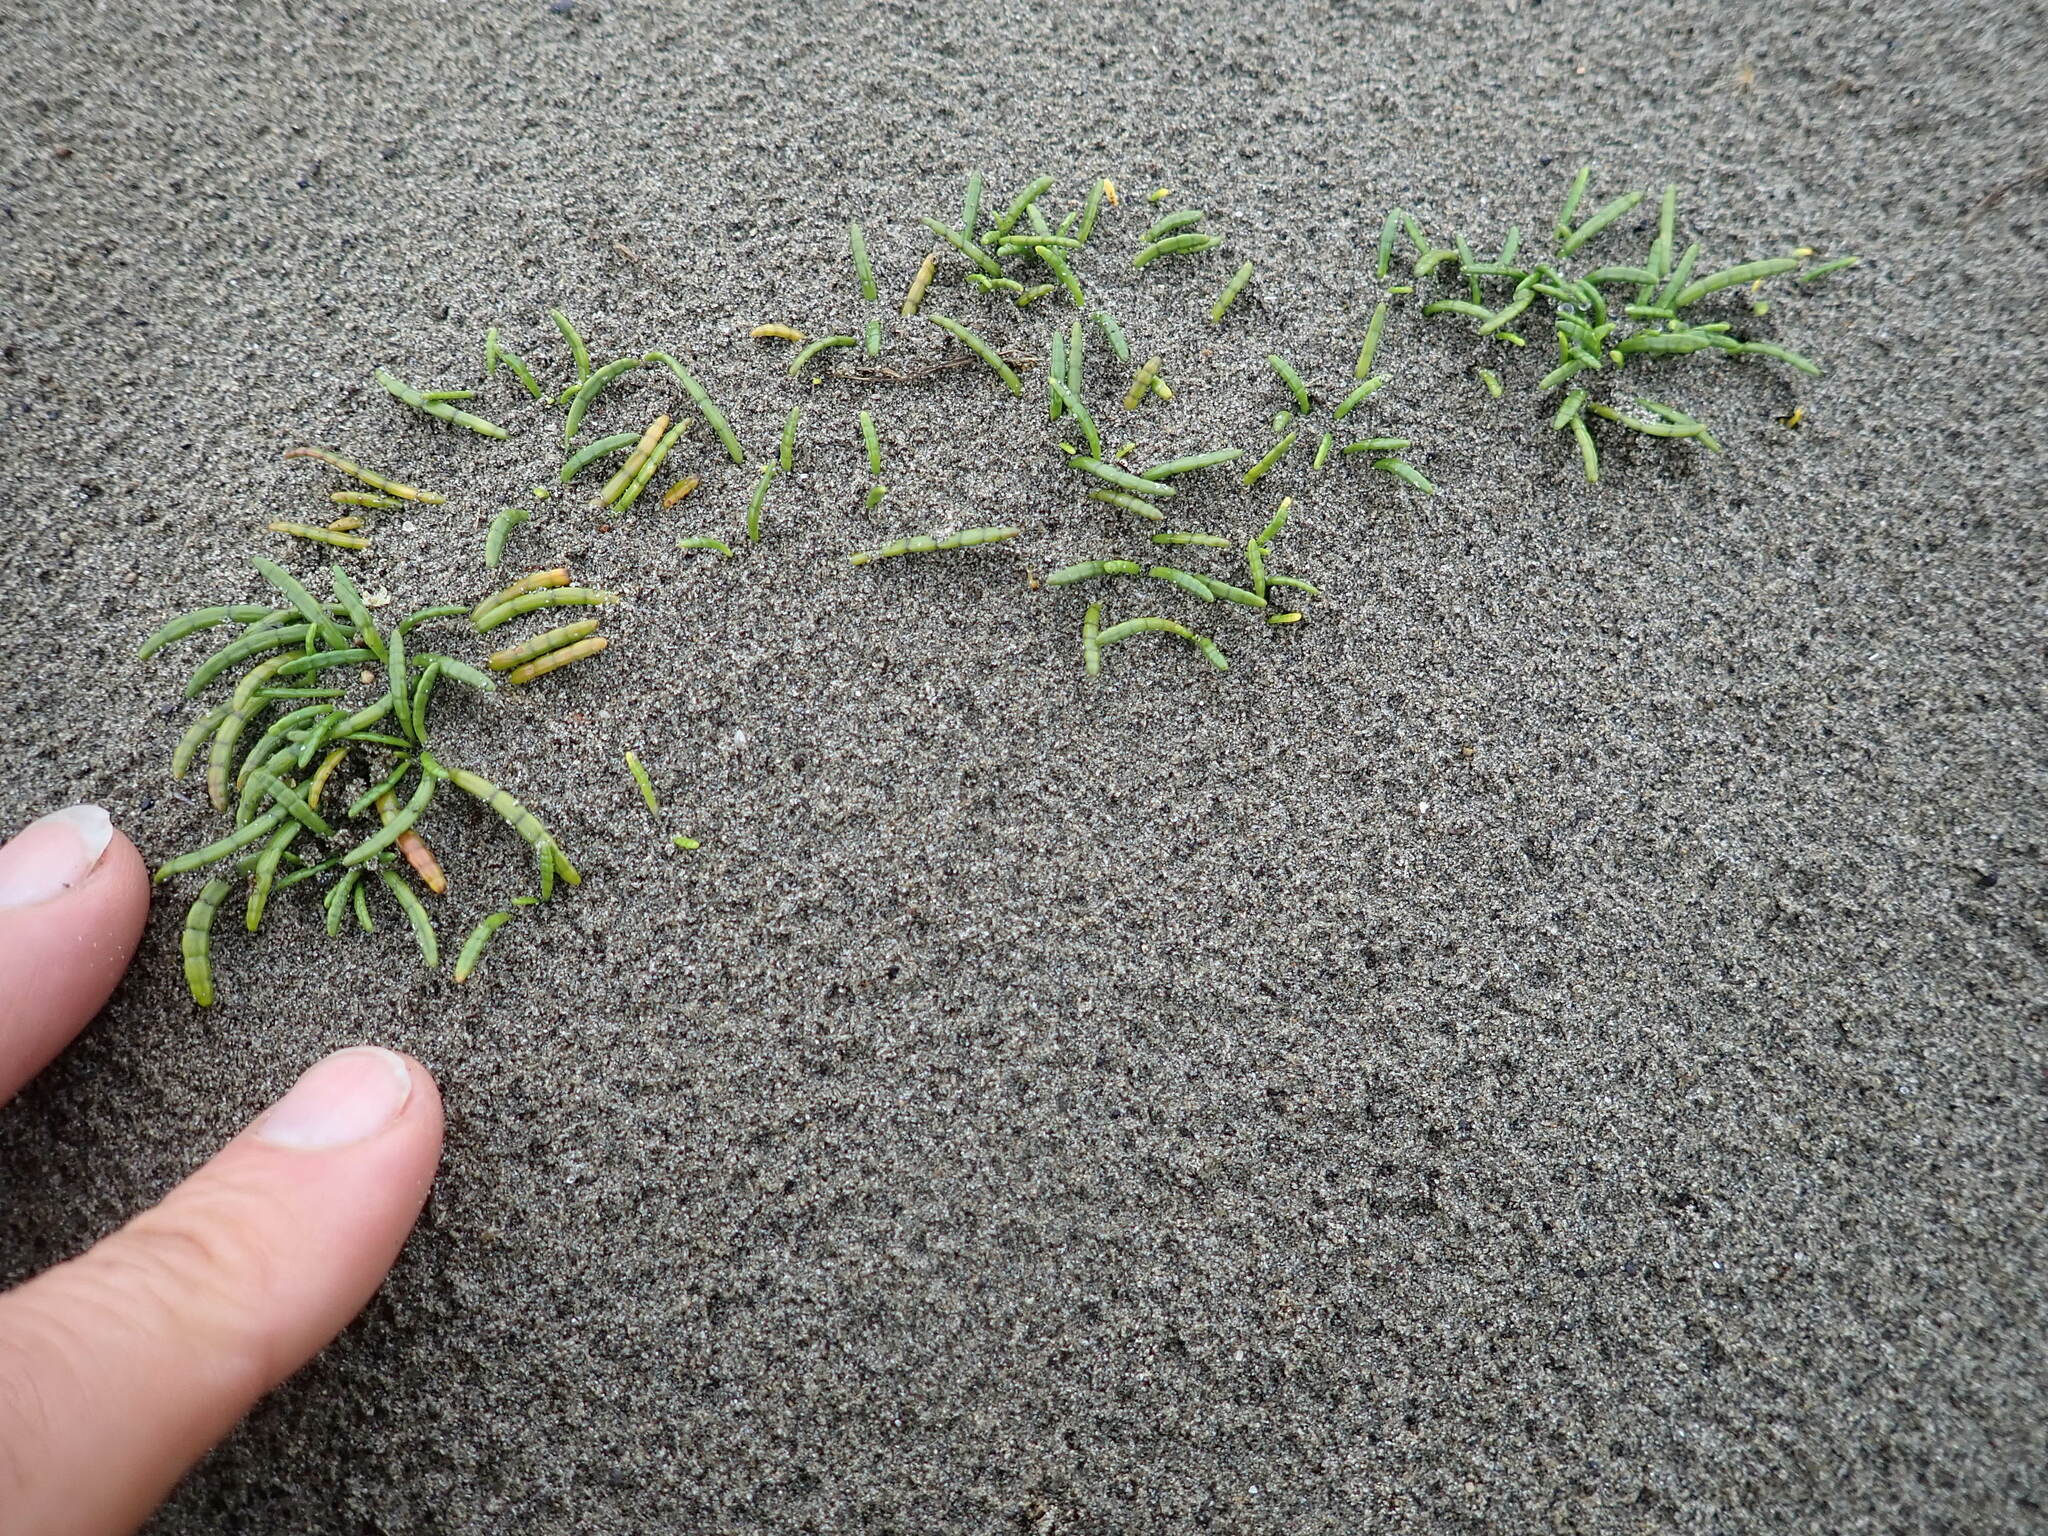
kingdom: Plantae
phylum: Tracheophyta
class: Magnoliopsida
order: Apiales
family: Apiaceae
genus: Lilaeopsis
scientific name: Lilaeopsis novae-zelandiae
